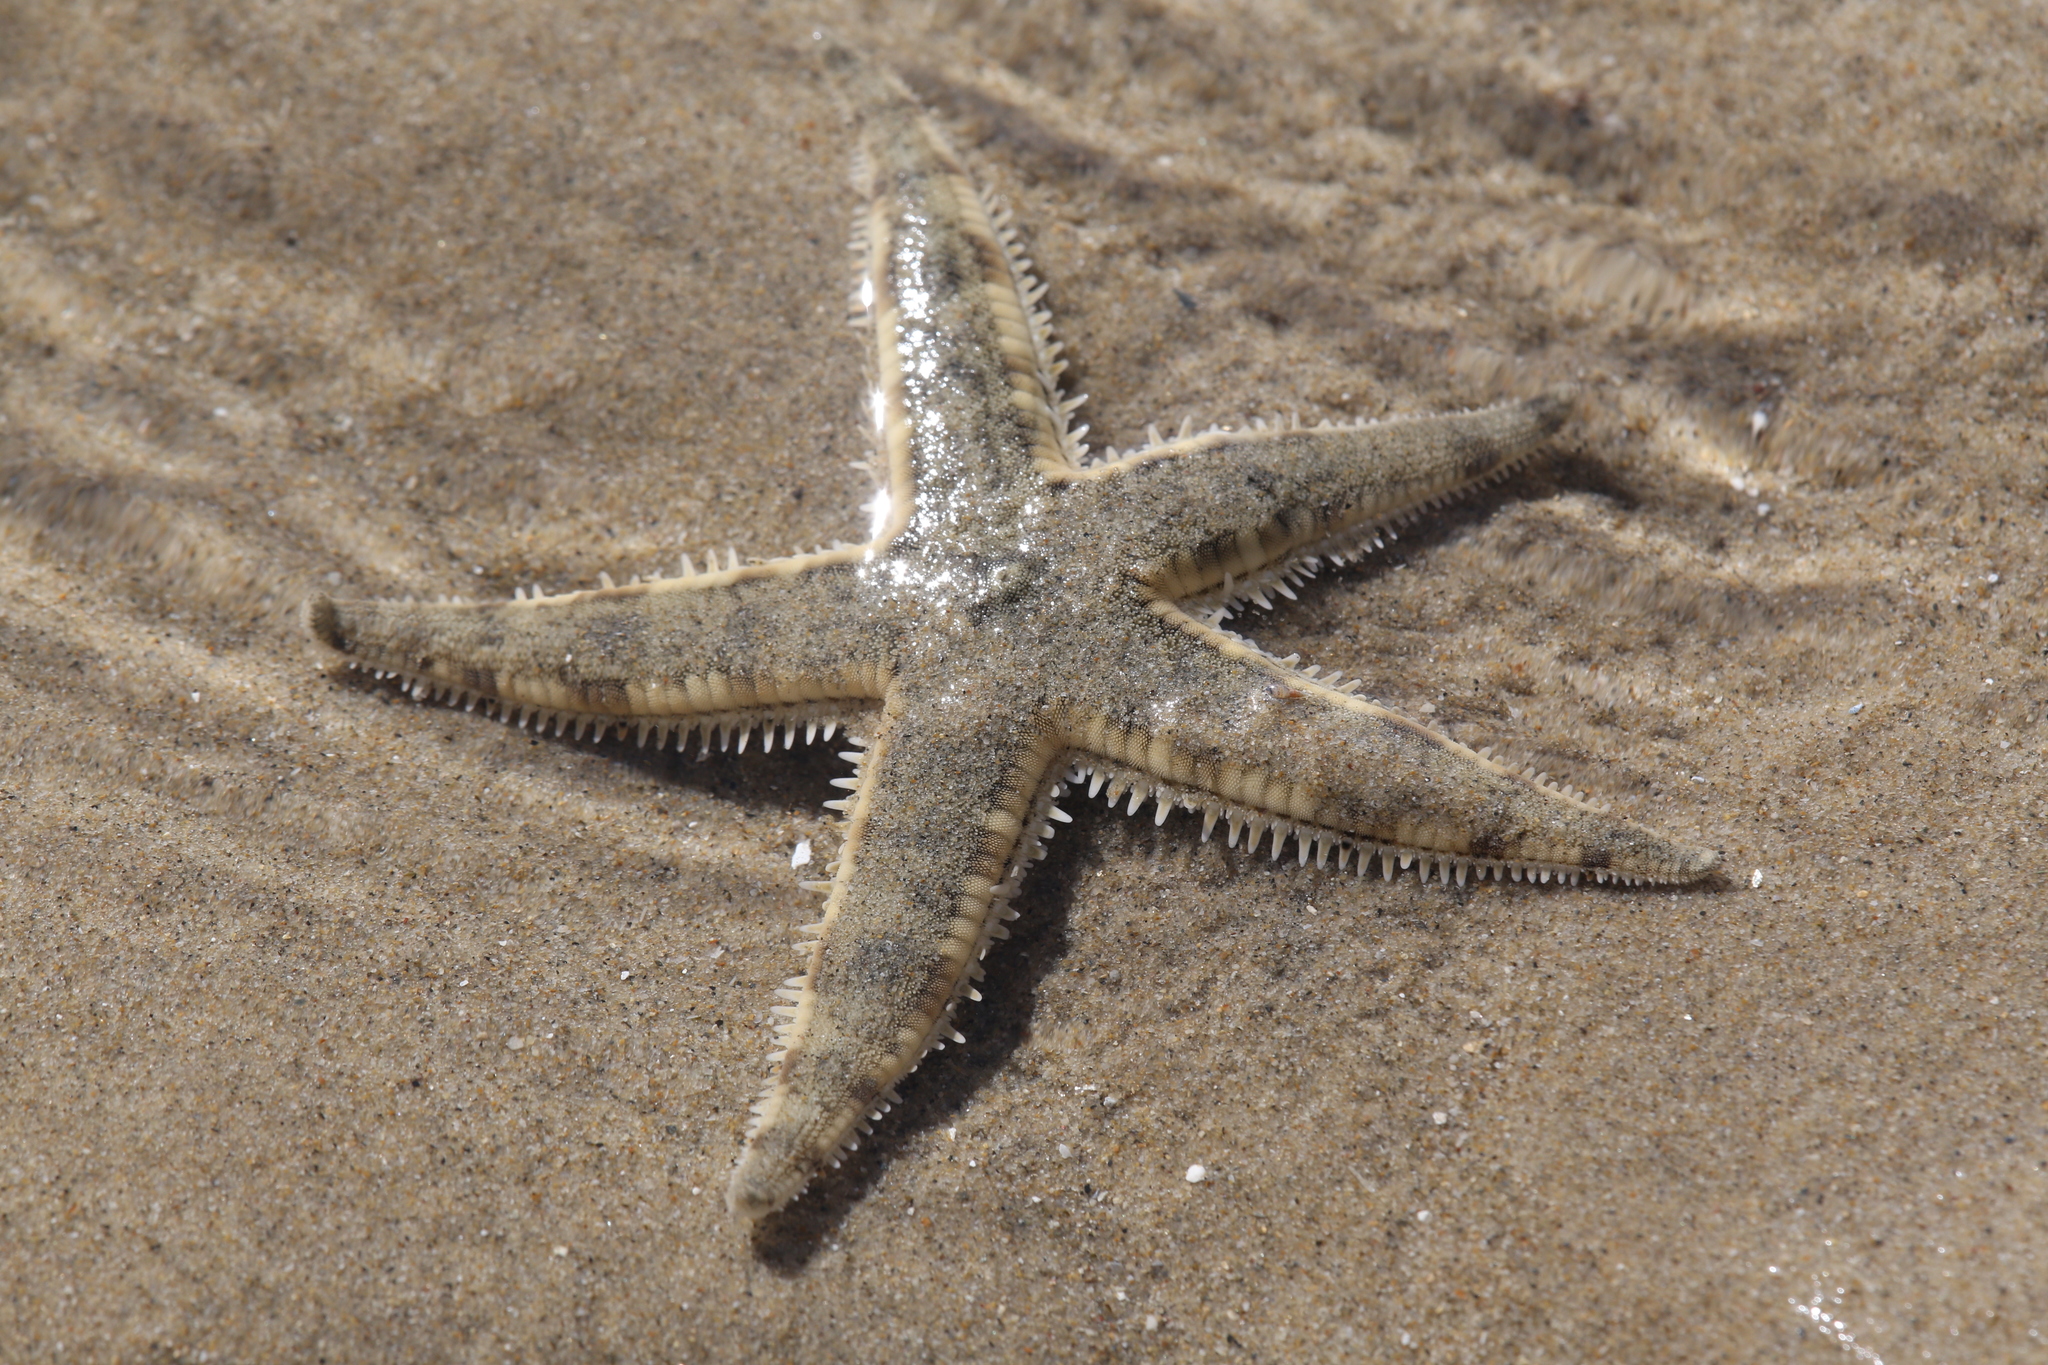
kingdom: Animalia
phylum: Echinodermata
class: Asteroidea
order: Valvatida
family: Archasteridae
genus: Archaster
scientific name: Archaster typicus
